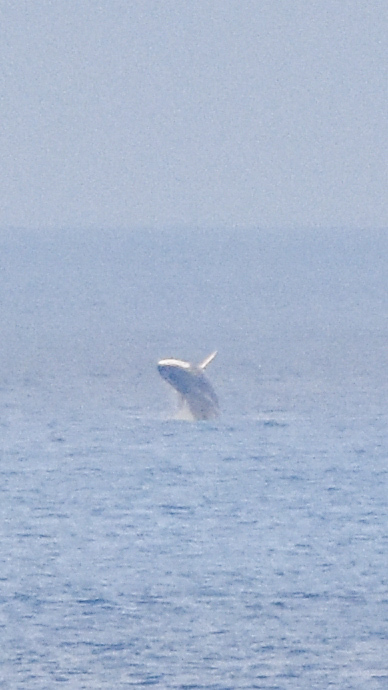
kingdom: Animalia
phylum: Chordata
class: Mammalia
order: Cetacea
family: Balaenopteridae
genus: Balaenoptera
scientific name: Balaenoptera physalus
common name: Fin whale
